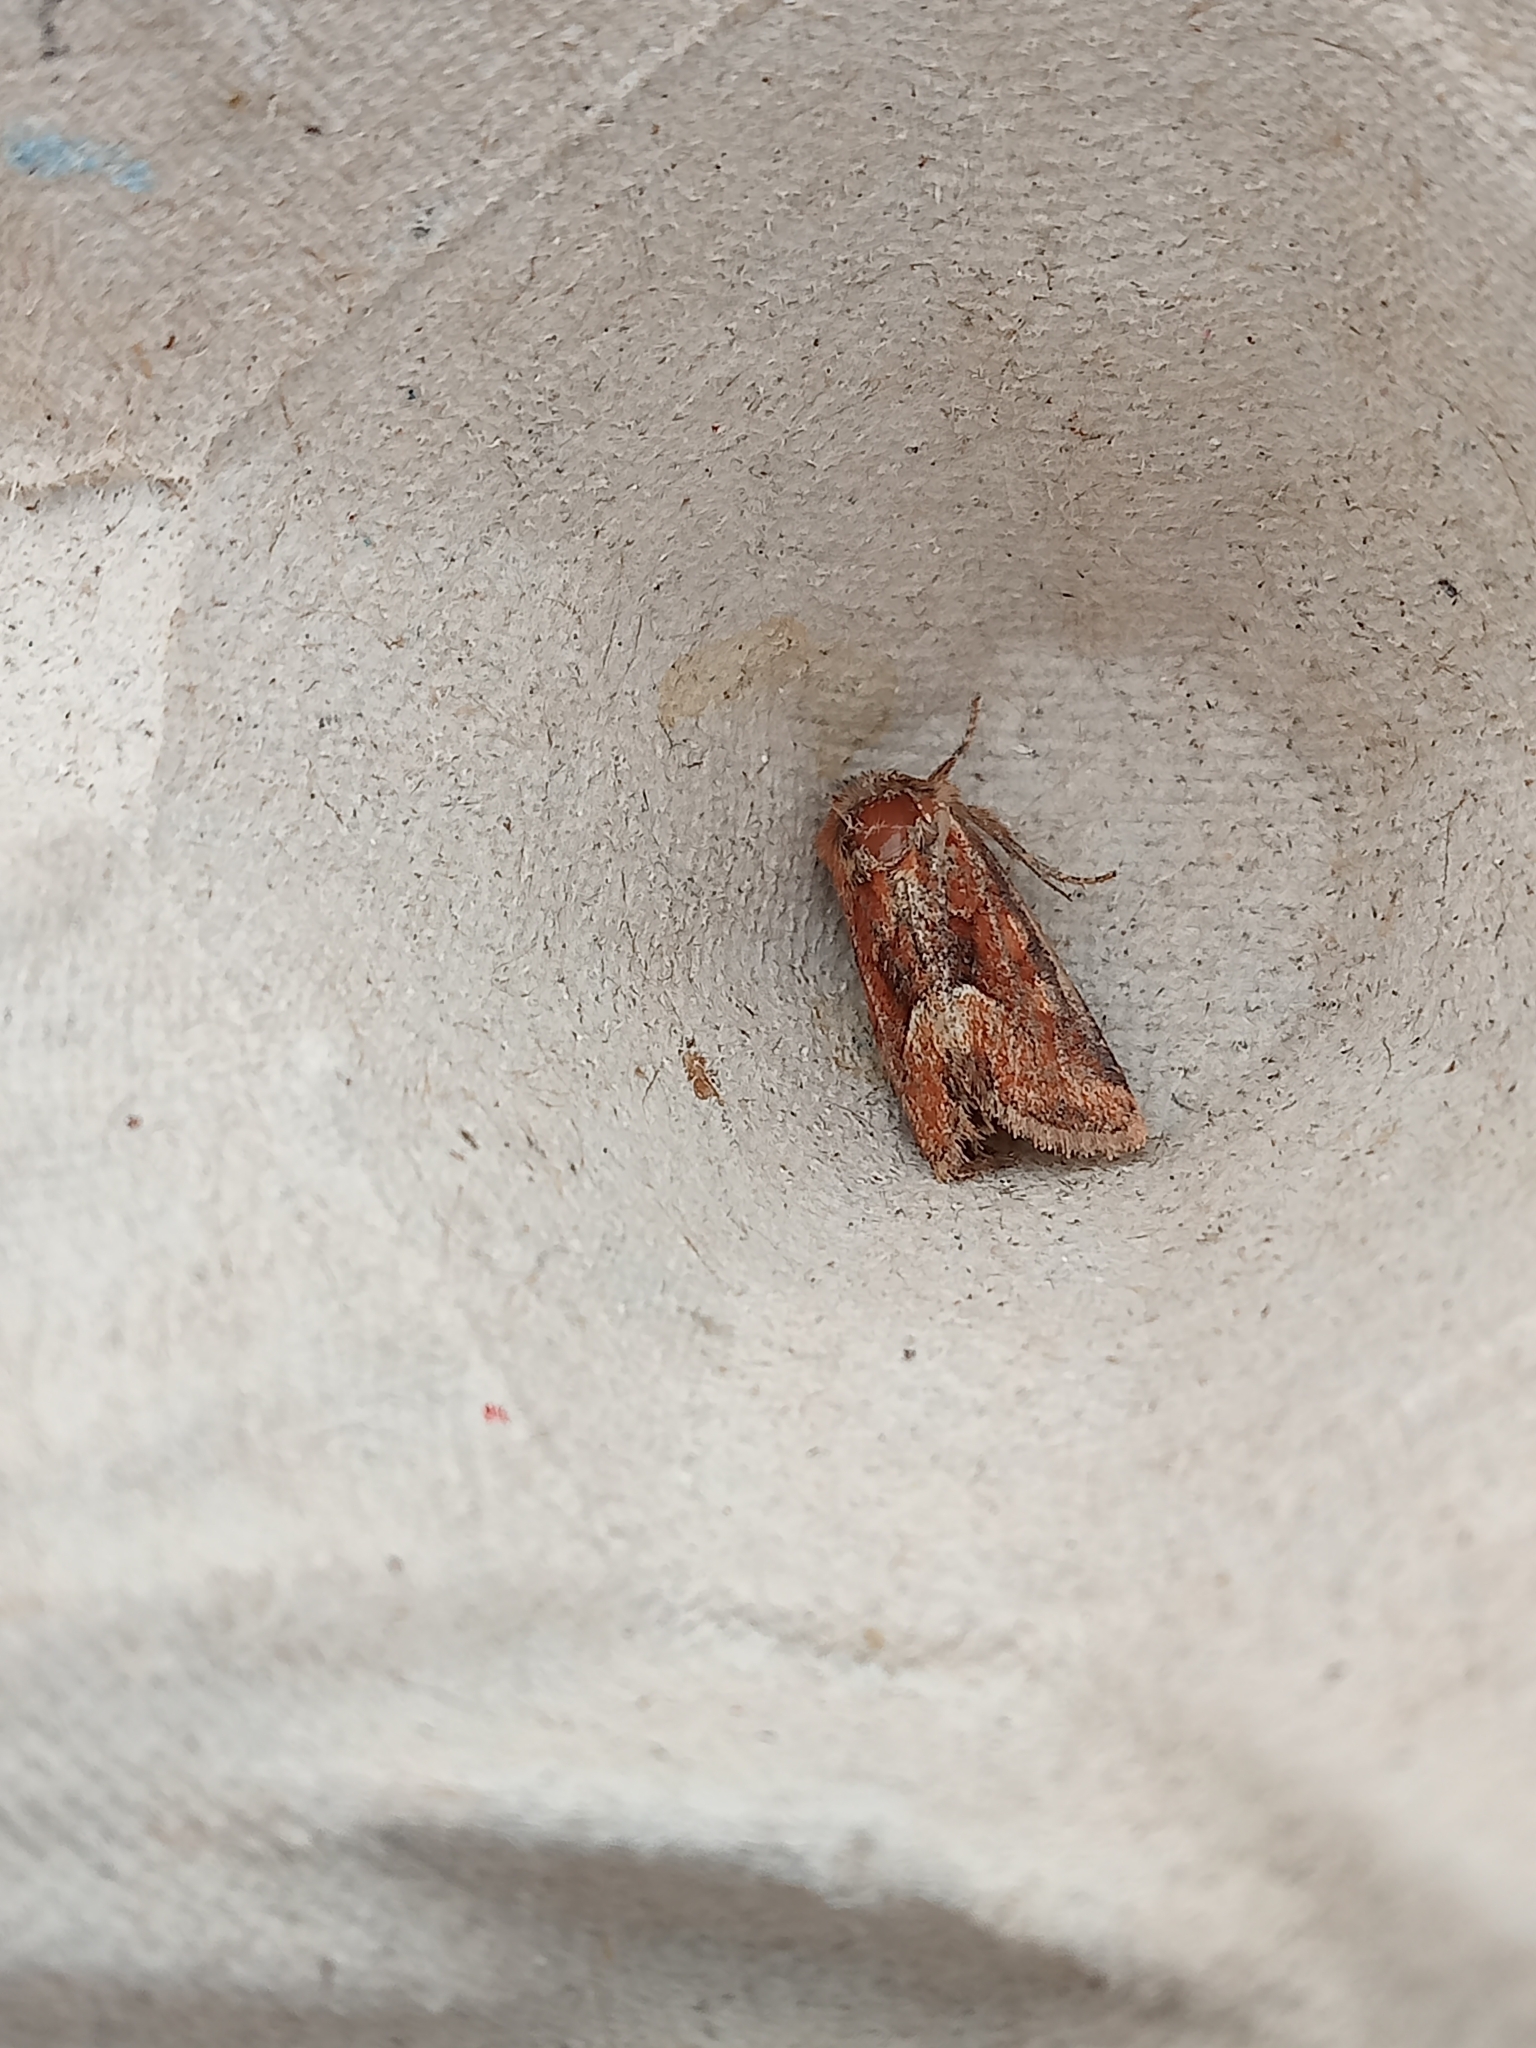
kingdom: Animalia
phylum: Arthropoda
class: Insecta
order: Lepidoptera
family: Noctuidae
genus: Oligia
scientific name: Oligia fasciuncula
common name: Middle-barred minor
